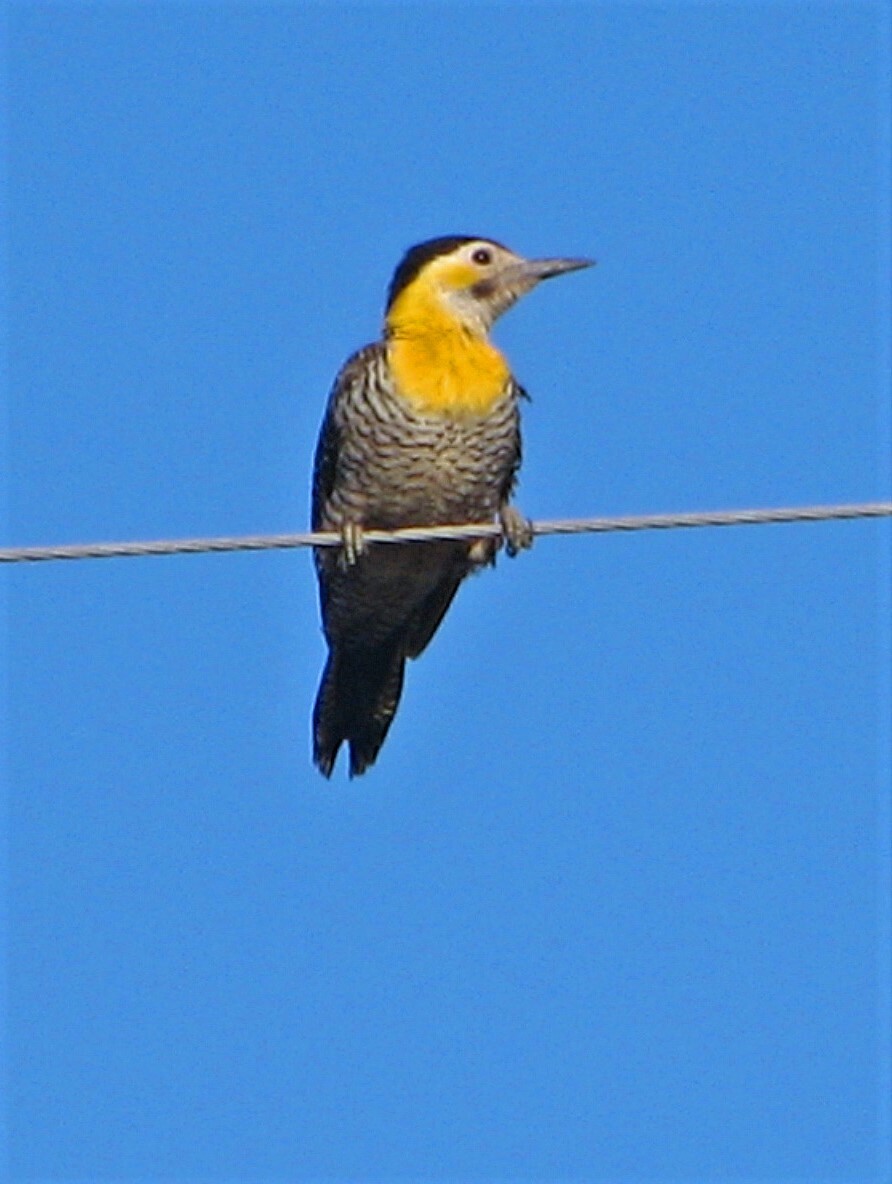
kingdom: Animalia
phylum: Chordata
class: Aves
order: Piciformes
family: Picidae
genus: Colaptes
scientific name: Colaptes campestris
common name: Campo flicker
